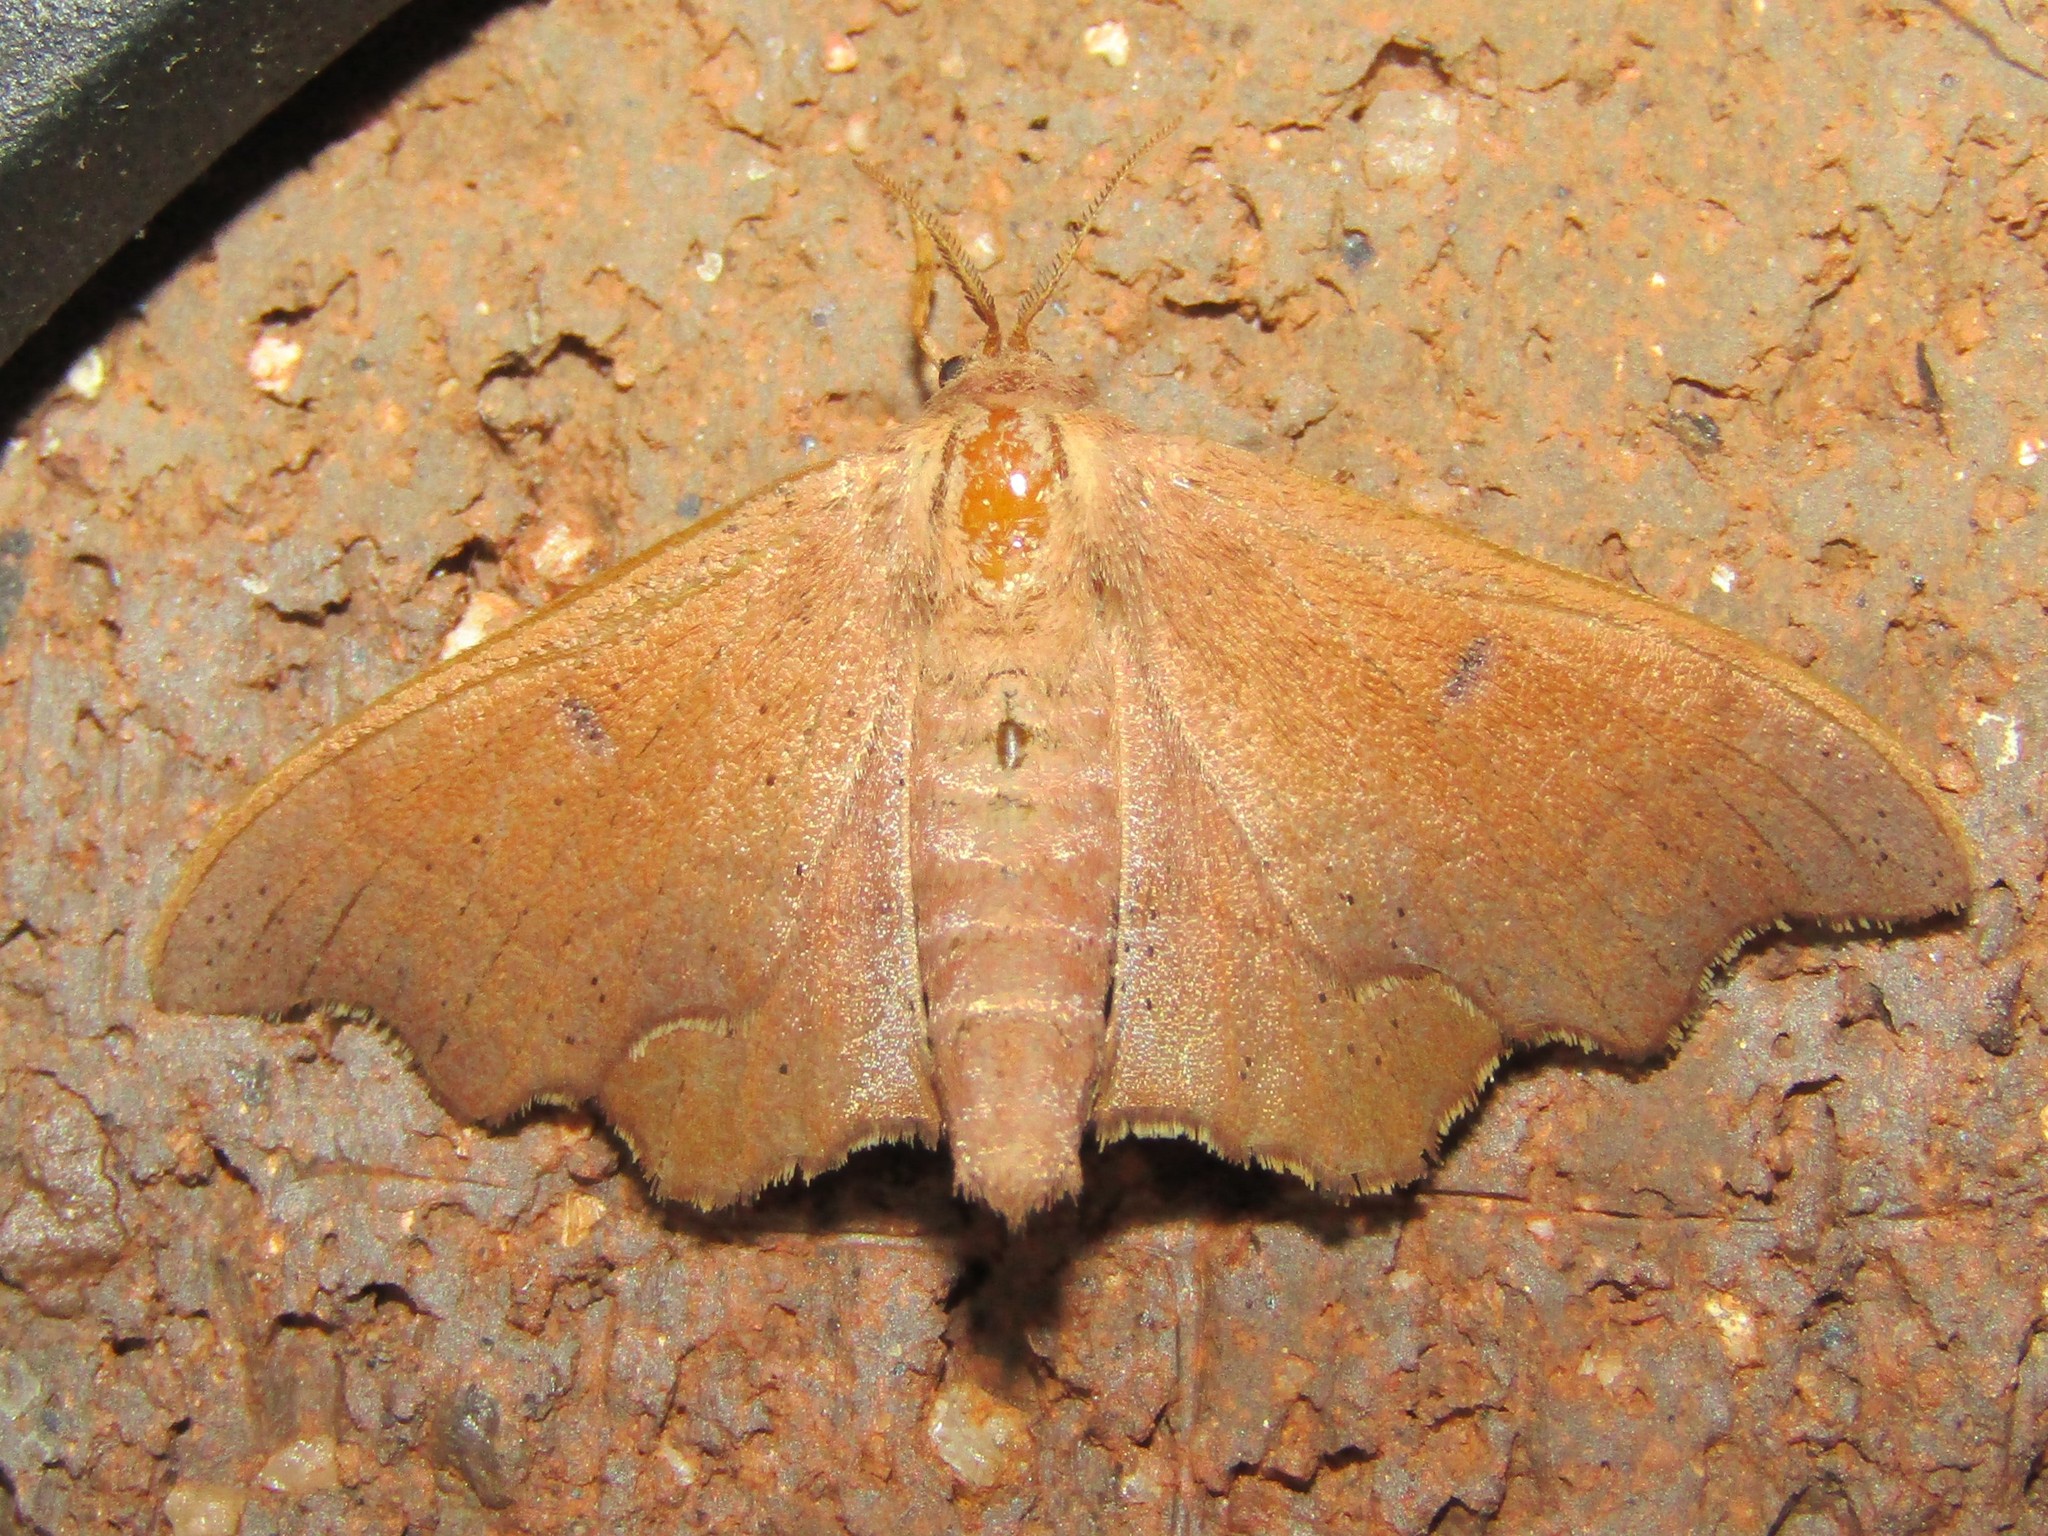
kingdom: Animalia
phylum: Arthropoda
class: Insecta
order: Lepidoptera
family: Mimallonidae
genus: Lacosoma
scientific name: Lacosoma chiridota
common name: Scalloped sack-bearer moth
